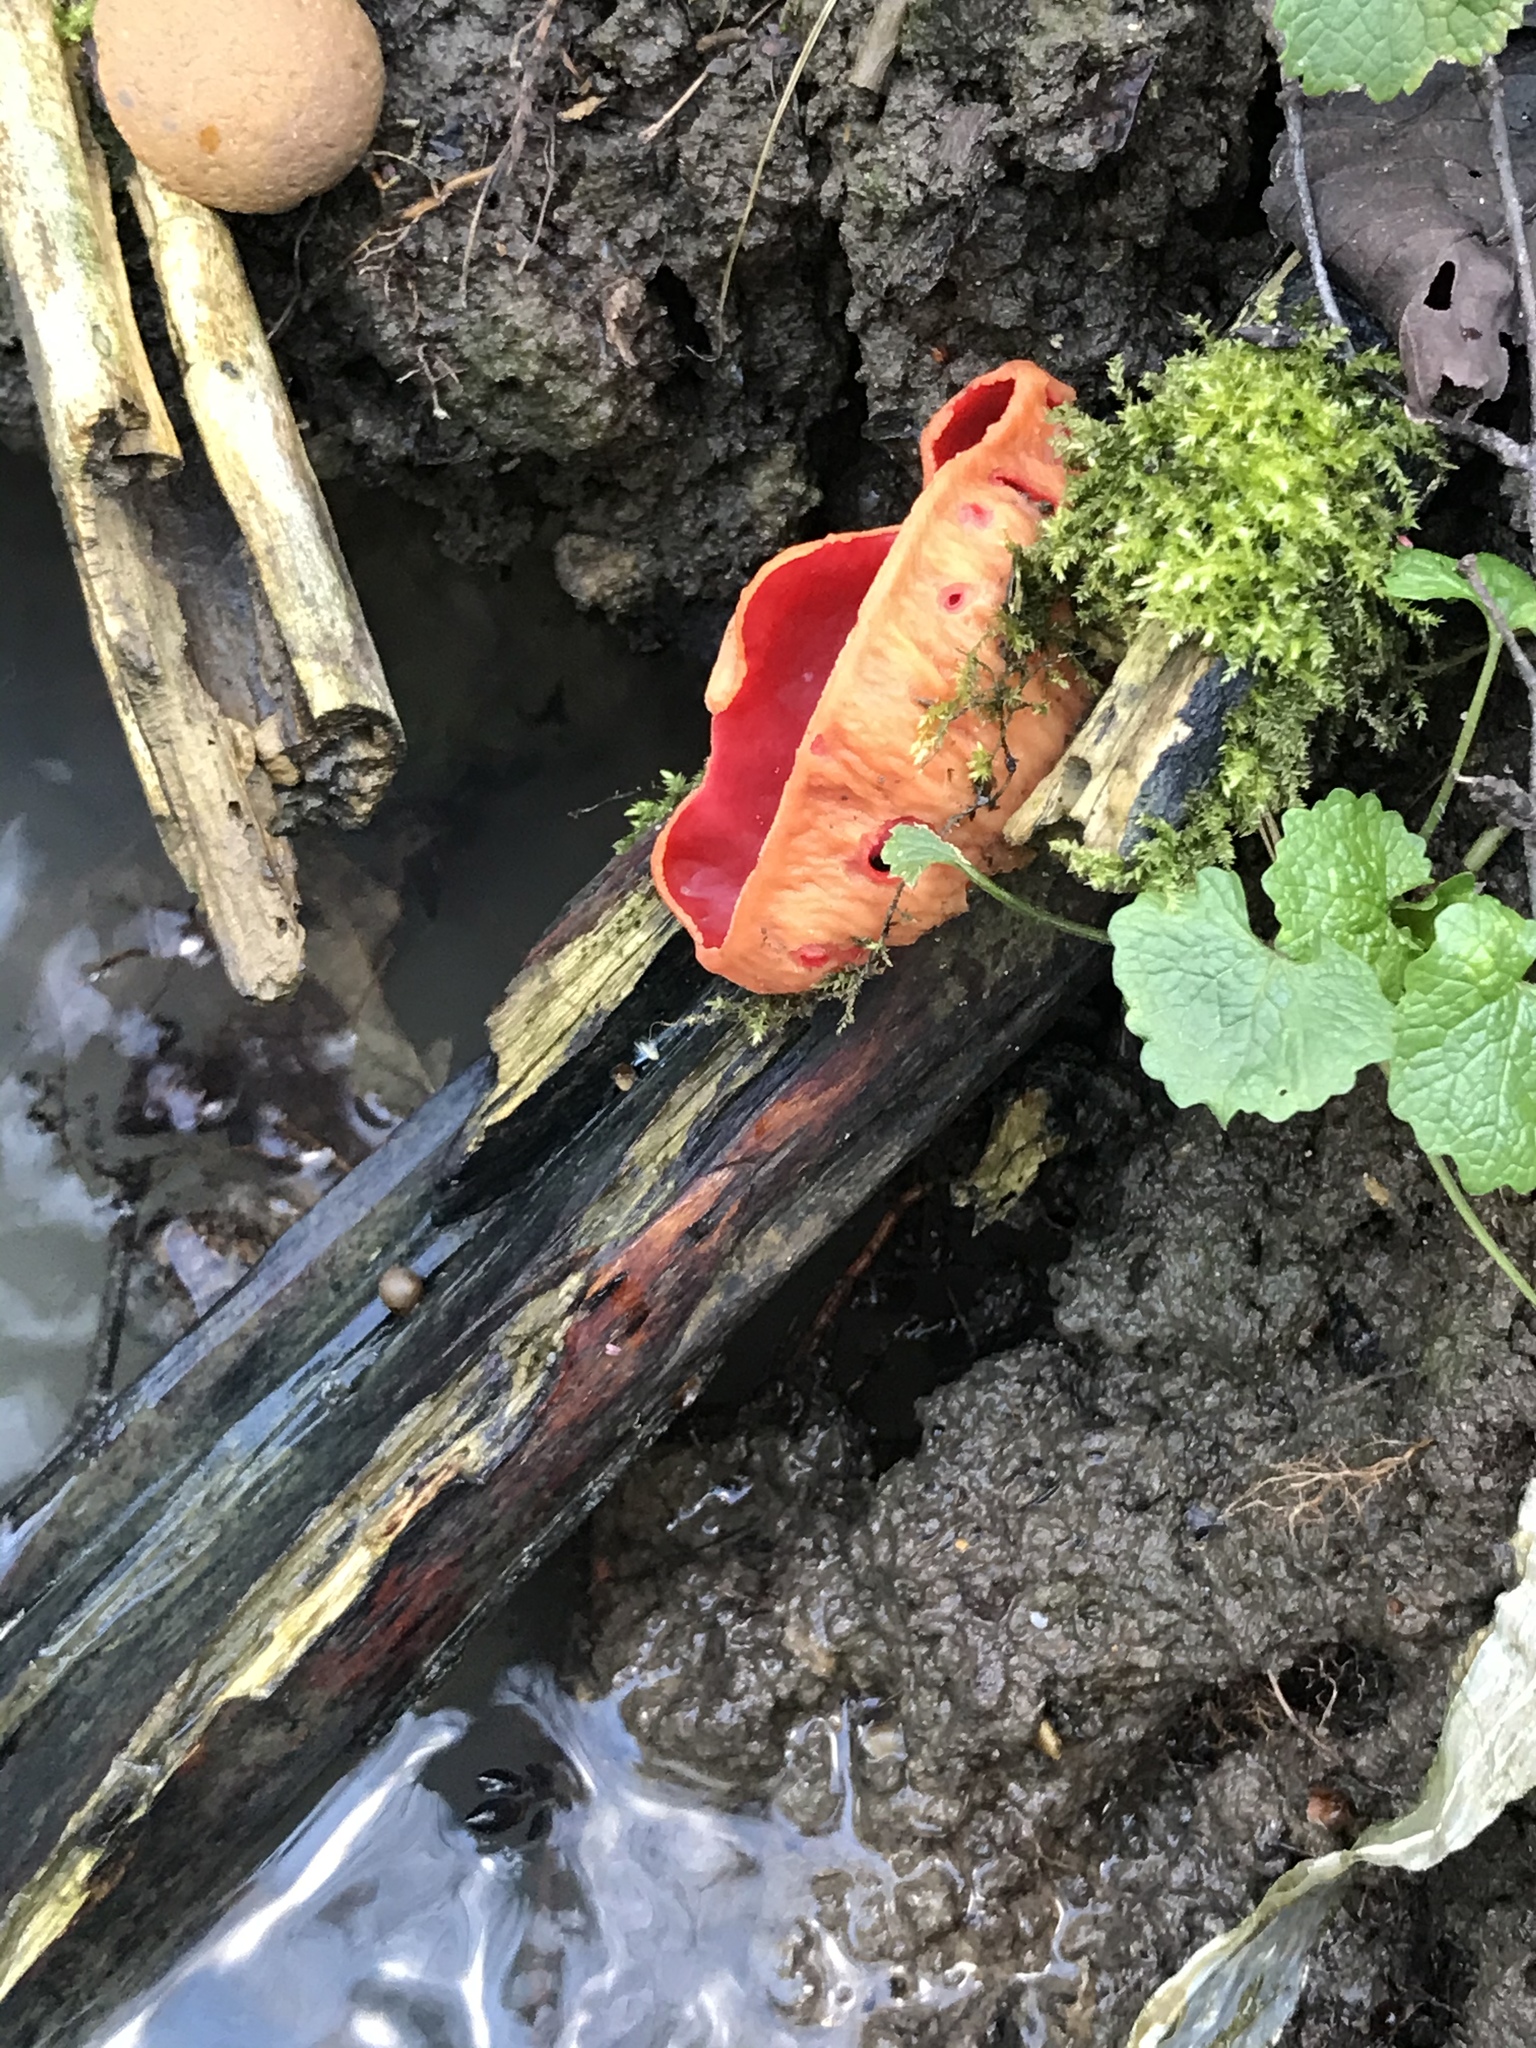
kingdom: Fungi
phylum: Ascomycota
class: Pezizomycetes
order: Pezizales
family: Sarcoscyphaceae
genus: Sarcoscypha
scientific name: Sarcoscypha
